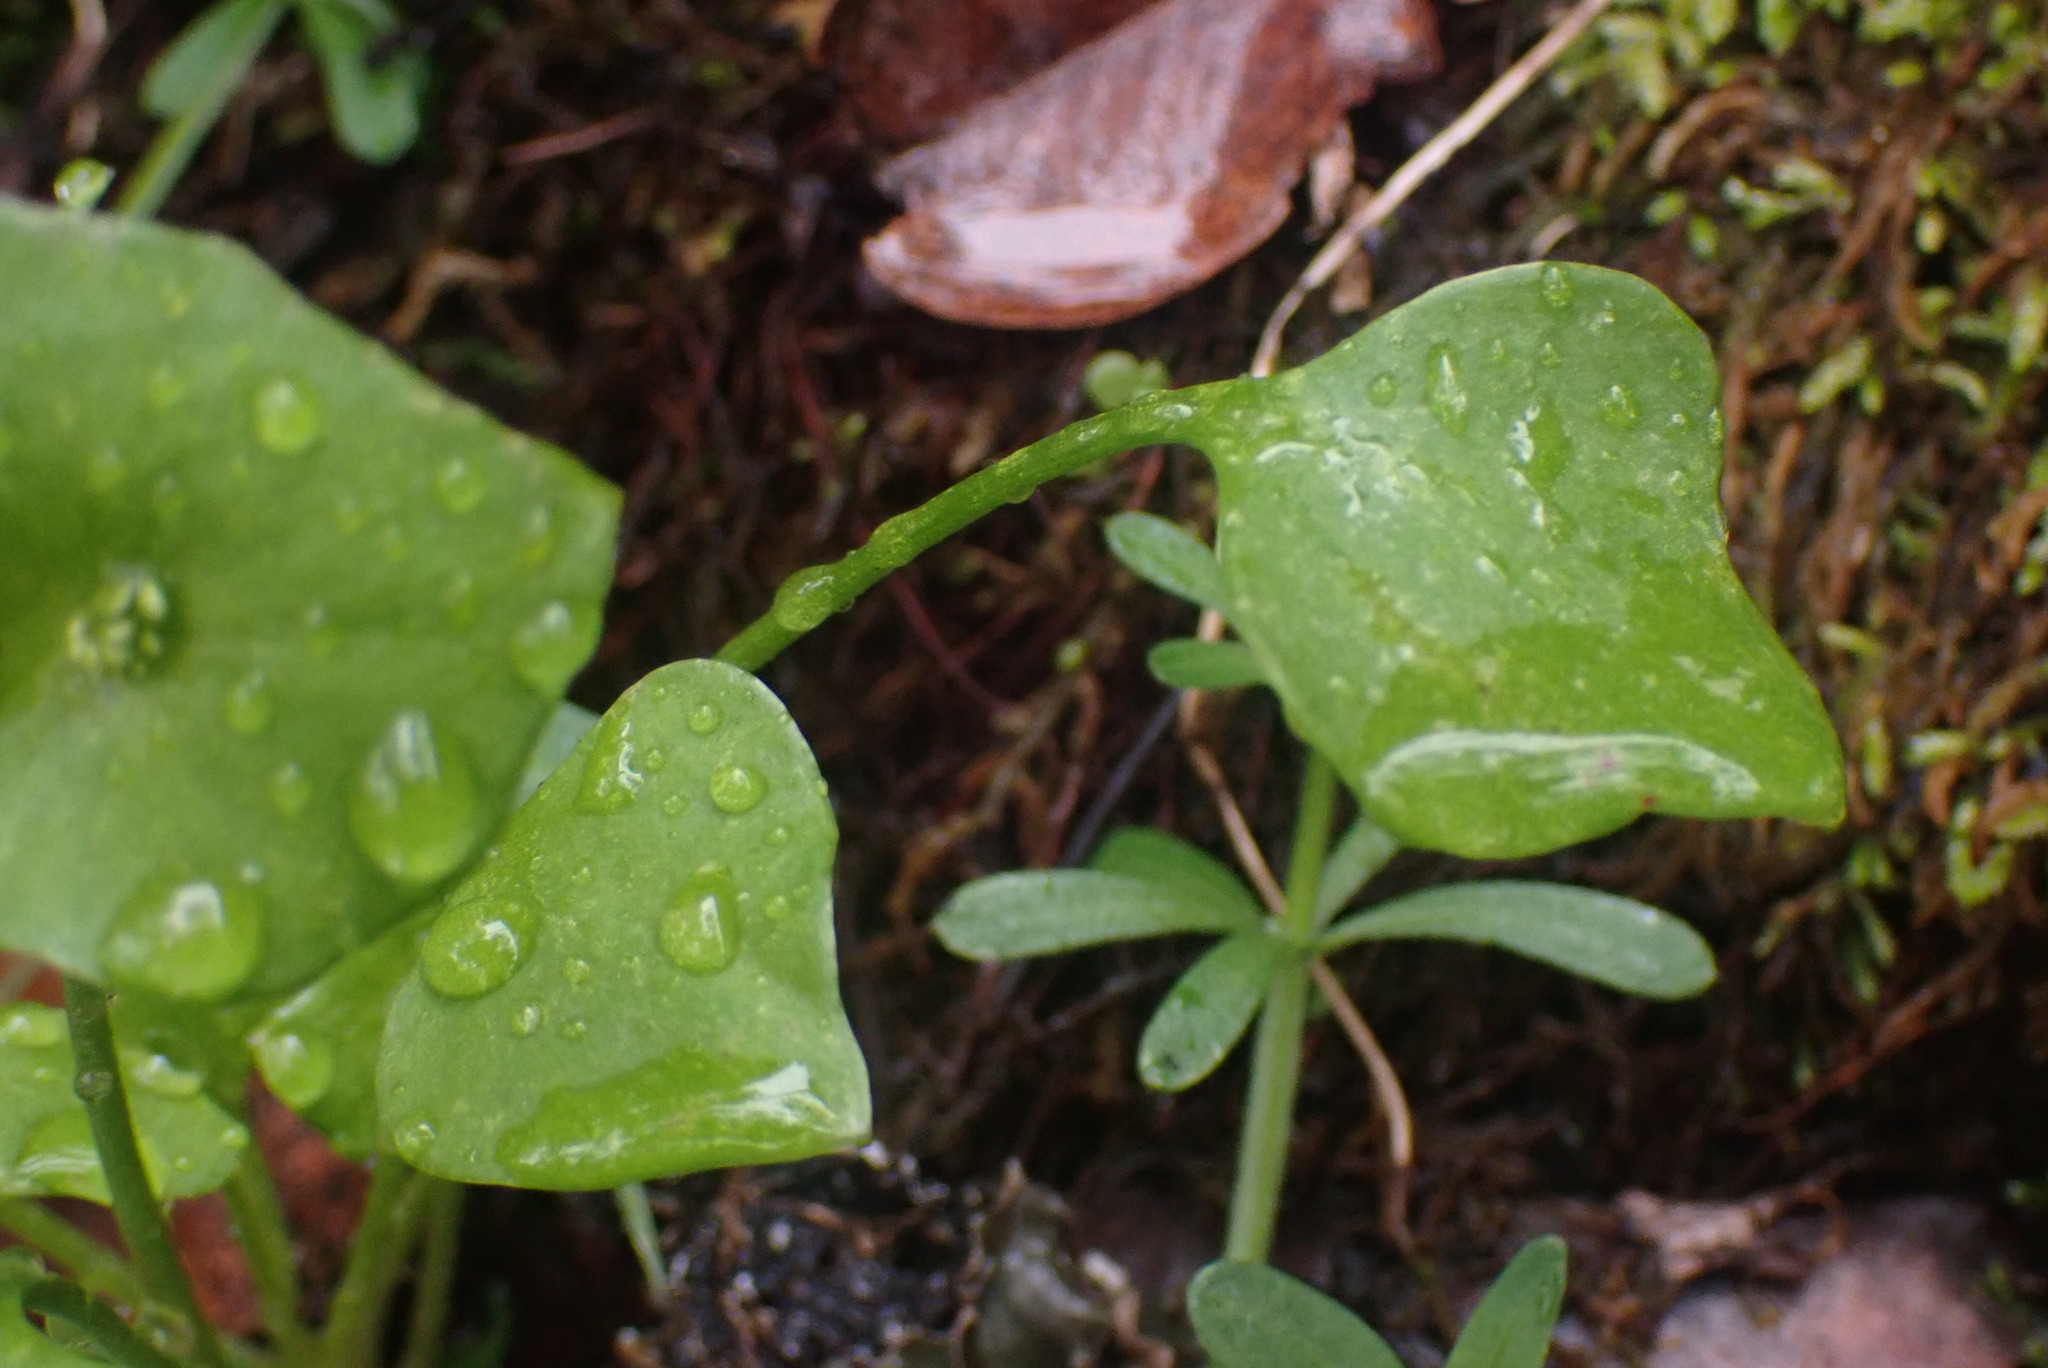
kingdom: Plantae
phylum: Tracheophyta
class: Magnoliopsida
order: Caryophyllales
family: Montiaceae
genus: Claytonia
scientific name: Claytonia perfoliata
